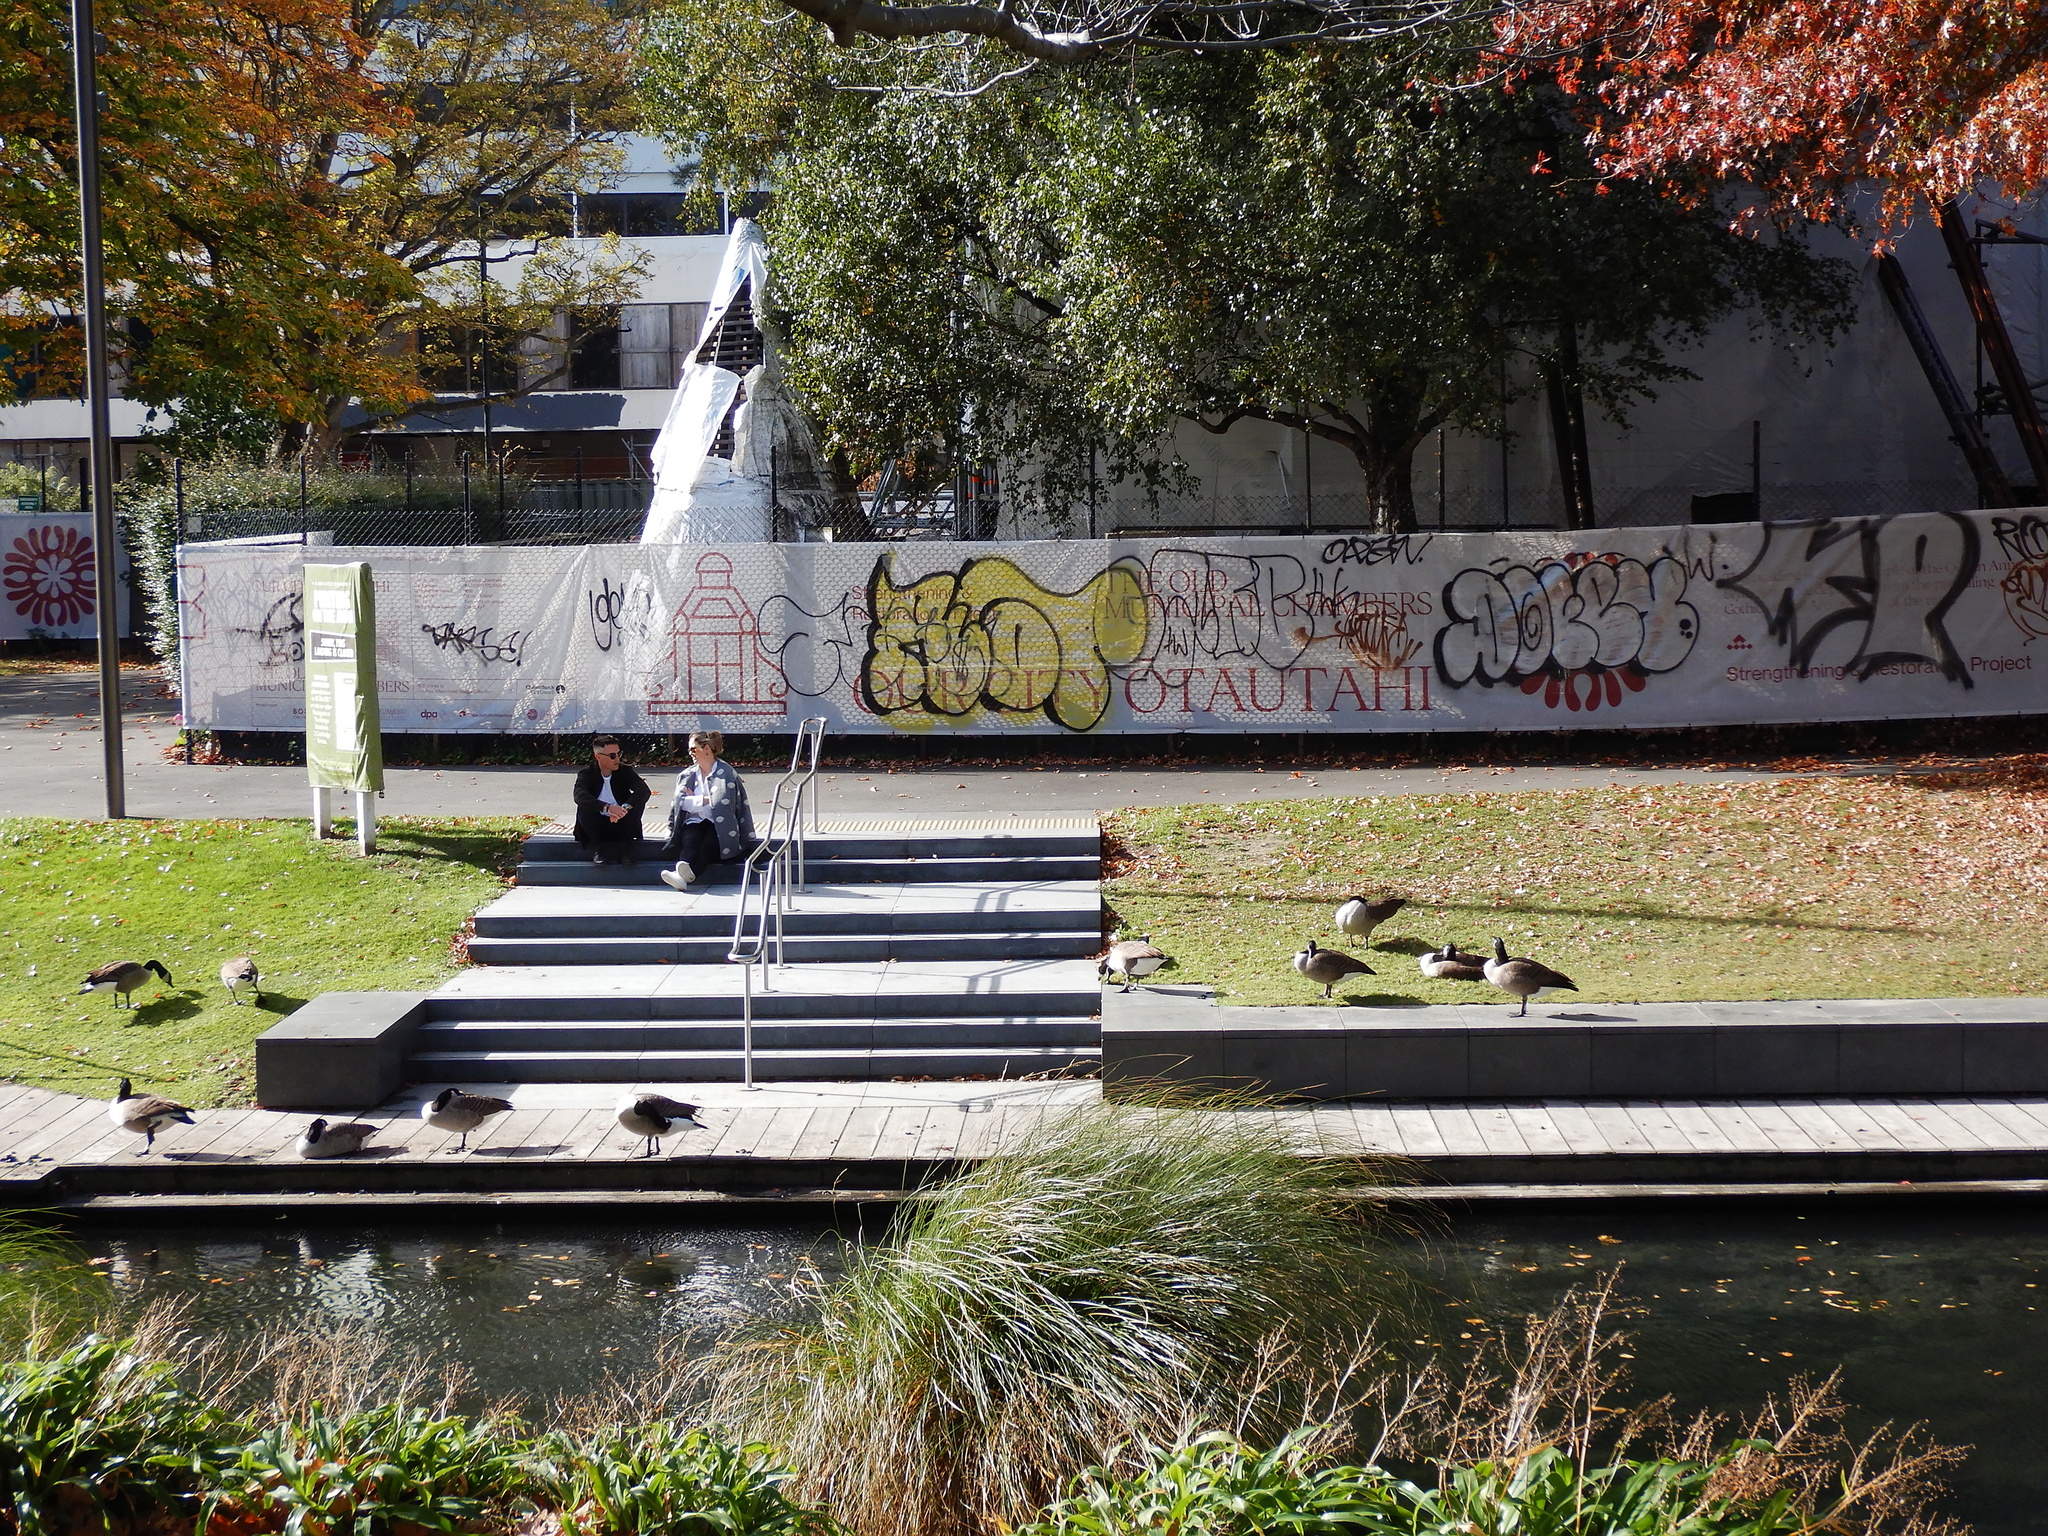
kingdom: Animalia
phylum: Chordata
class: Aves
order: Anseriformes
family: Anatidae
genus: Branta
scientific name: Branta canadensis
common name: Canada goose
